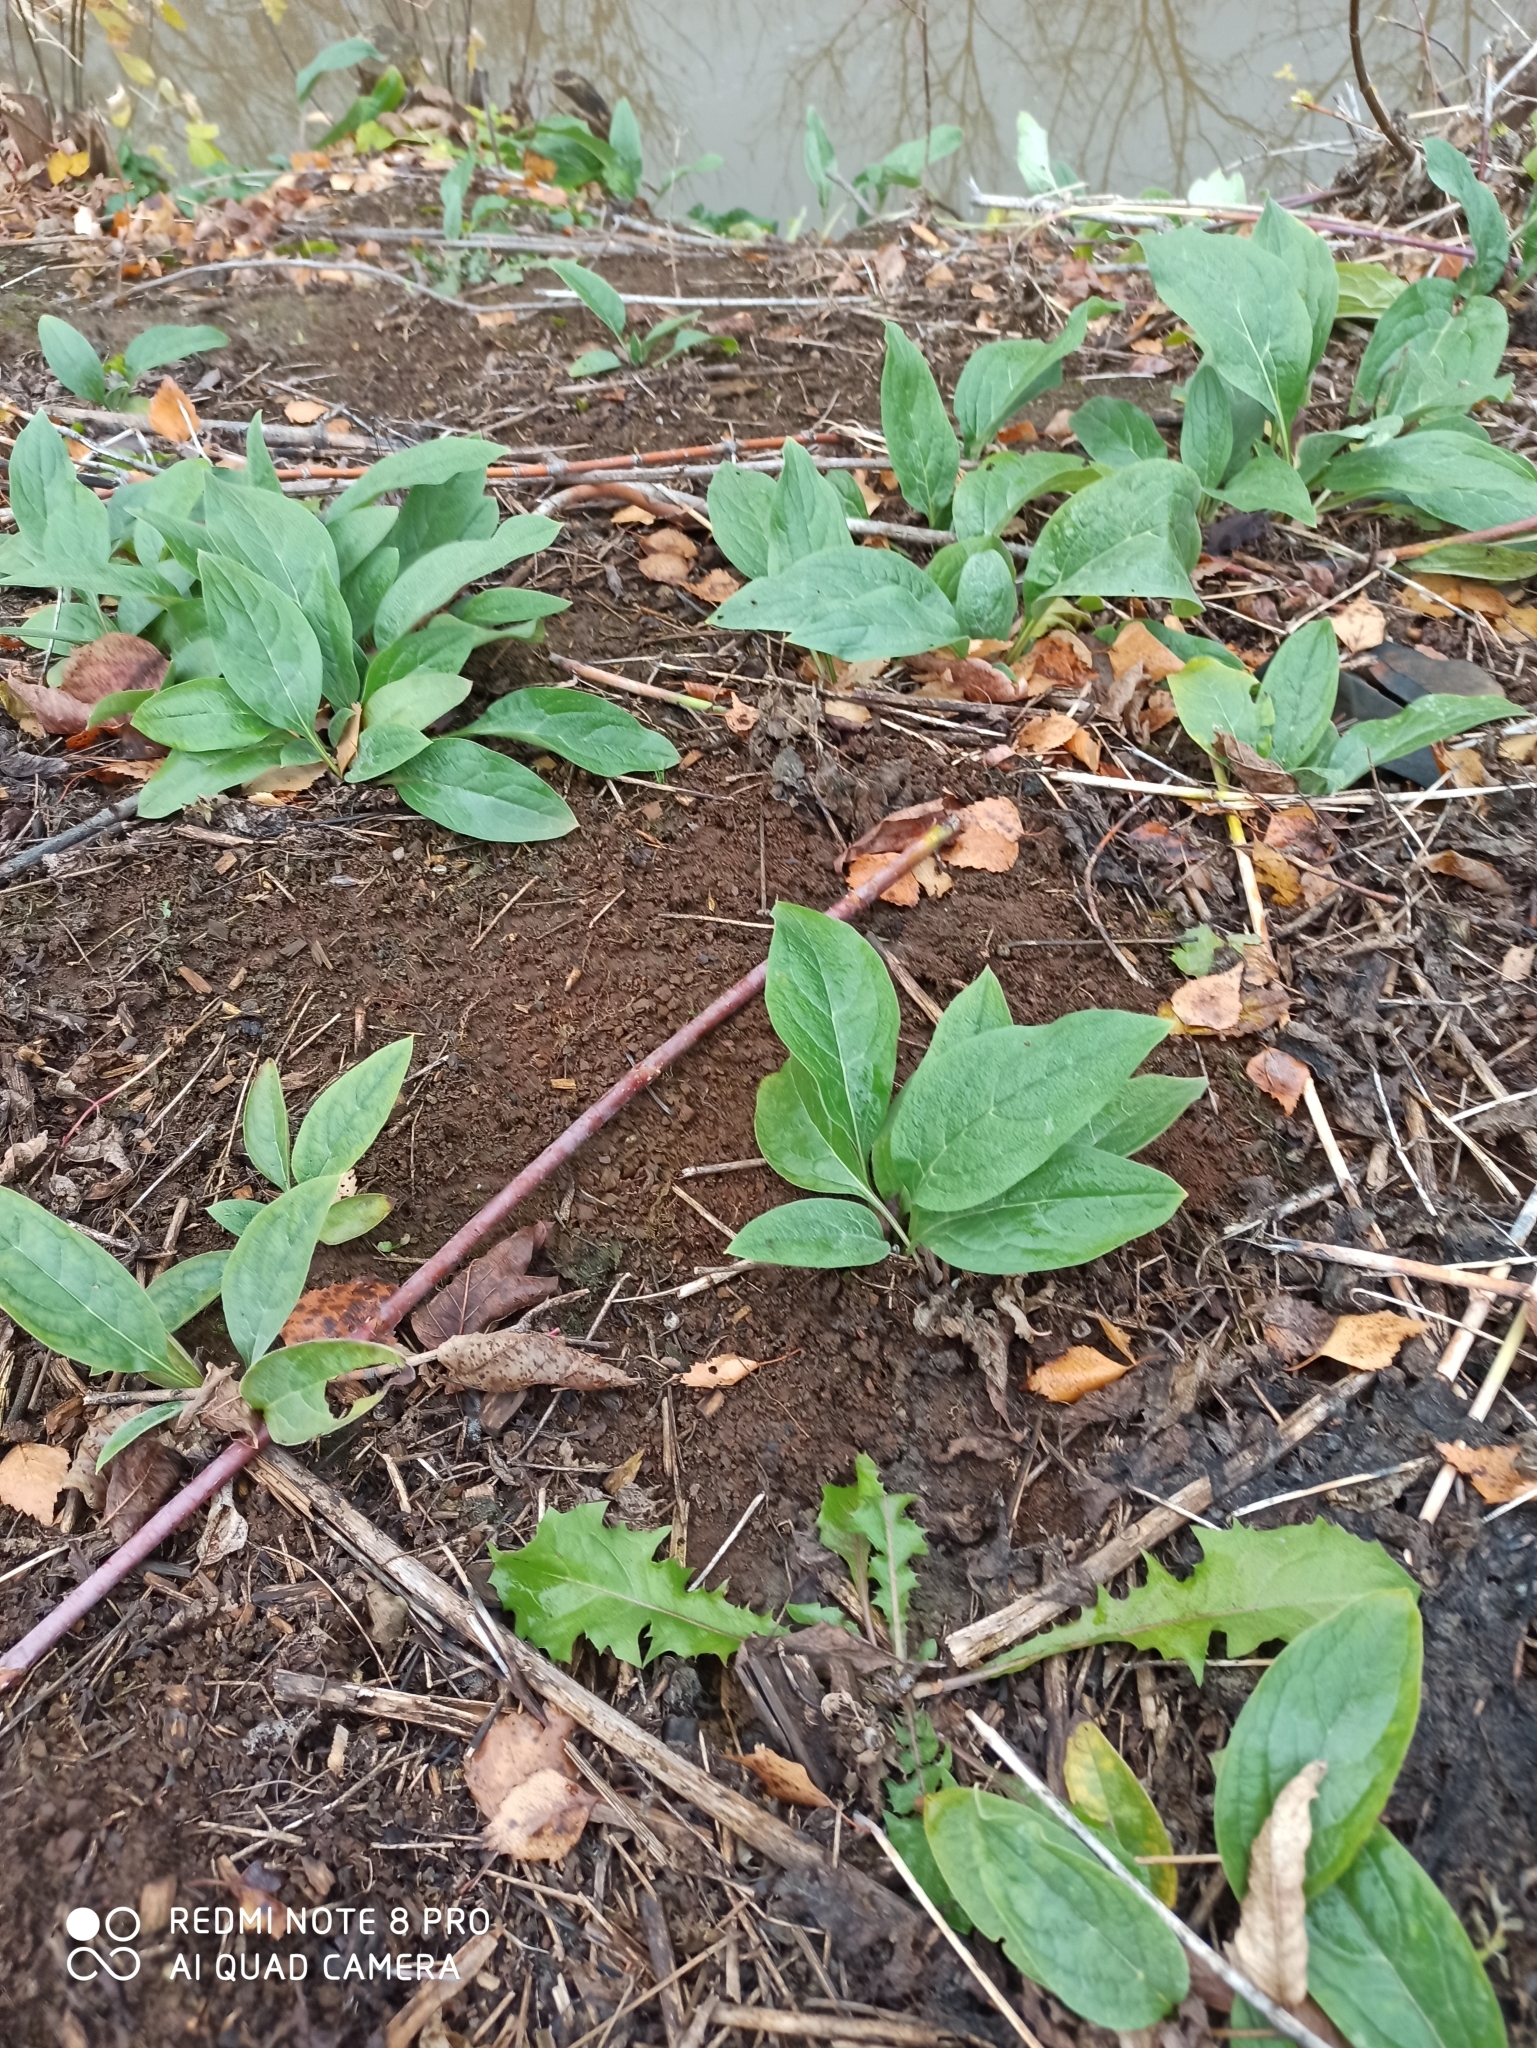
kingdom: Plantae
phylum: Tracheophyta
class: Magnoliopsida
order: Boraginales
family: Boraginaceae
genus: Cynoglossum
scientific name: Cynoglossum officinale
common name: Hound's-tongue
